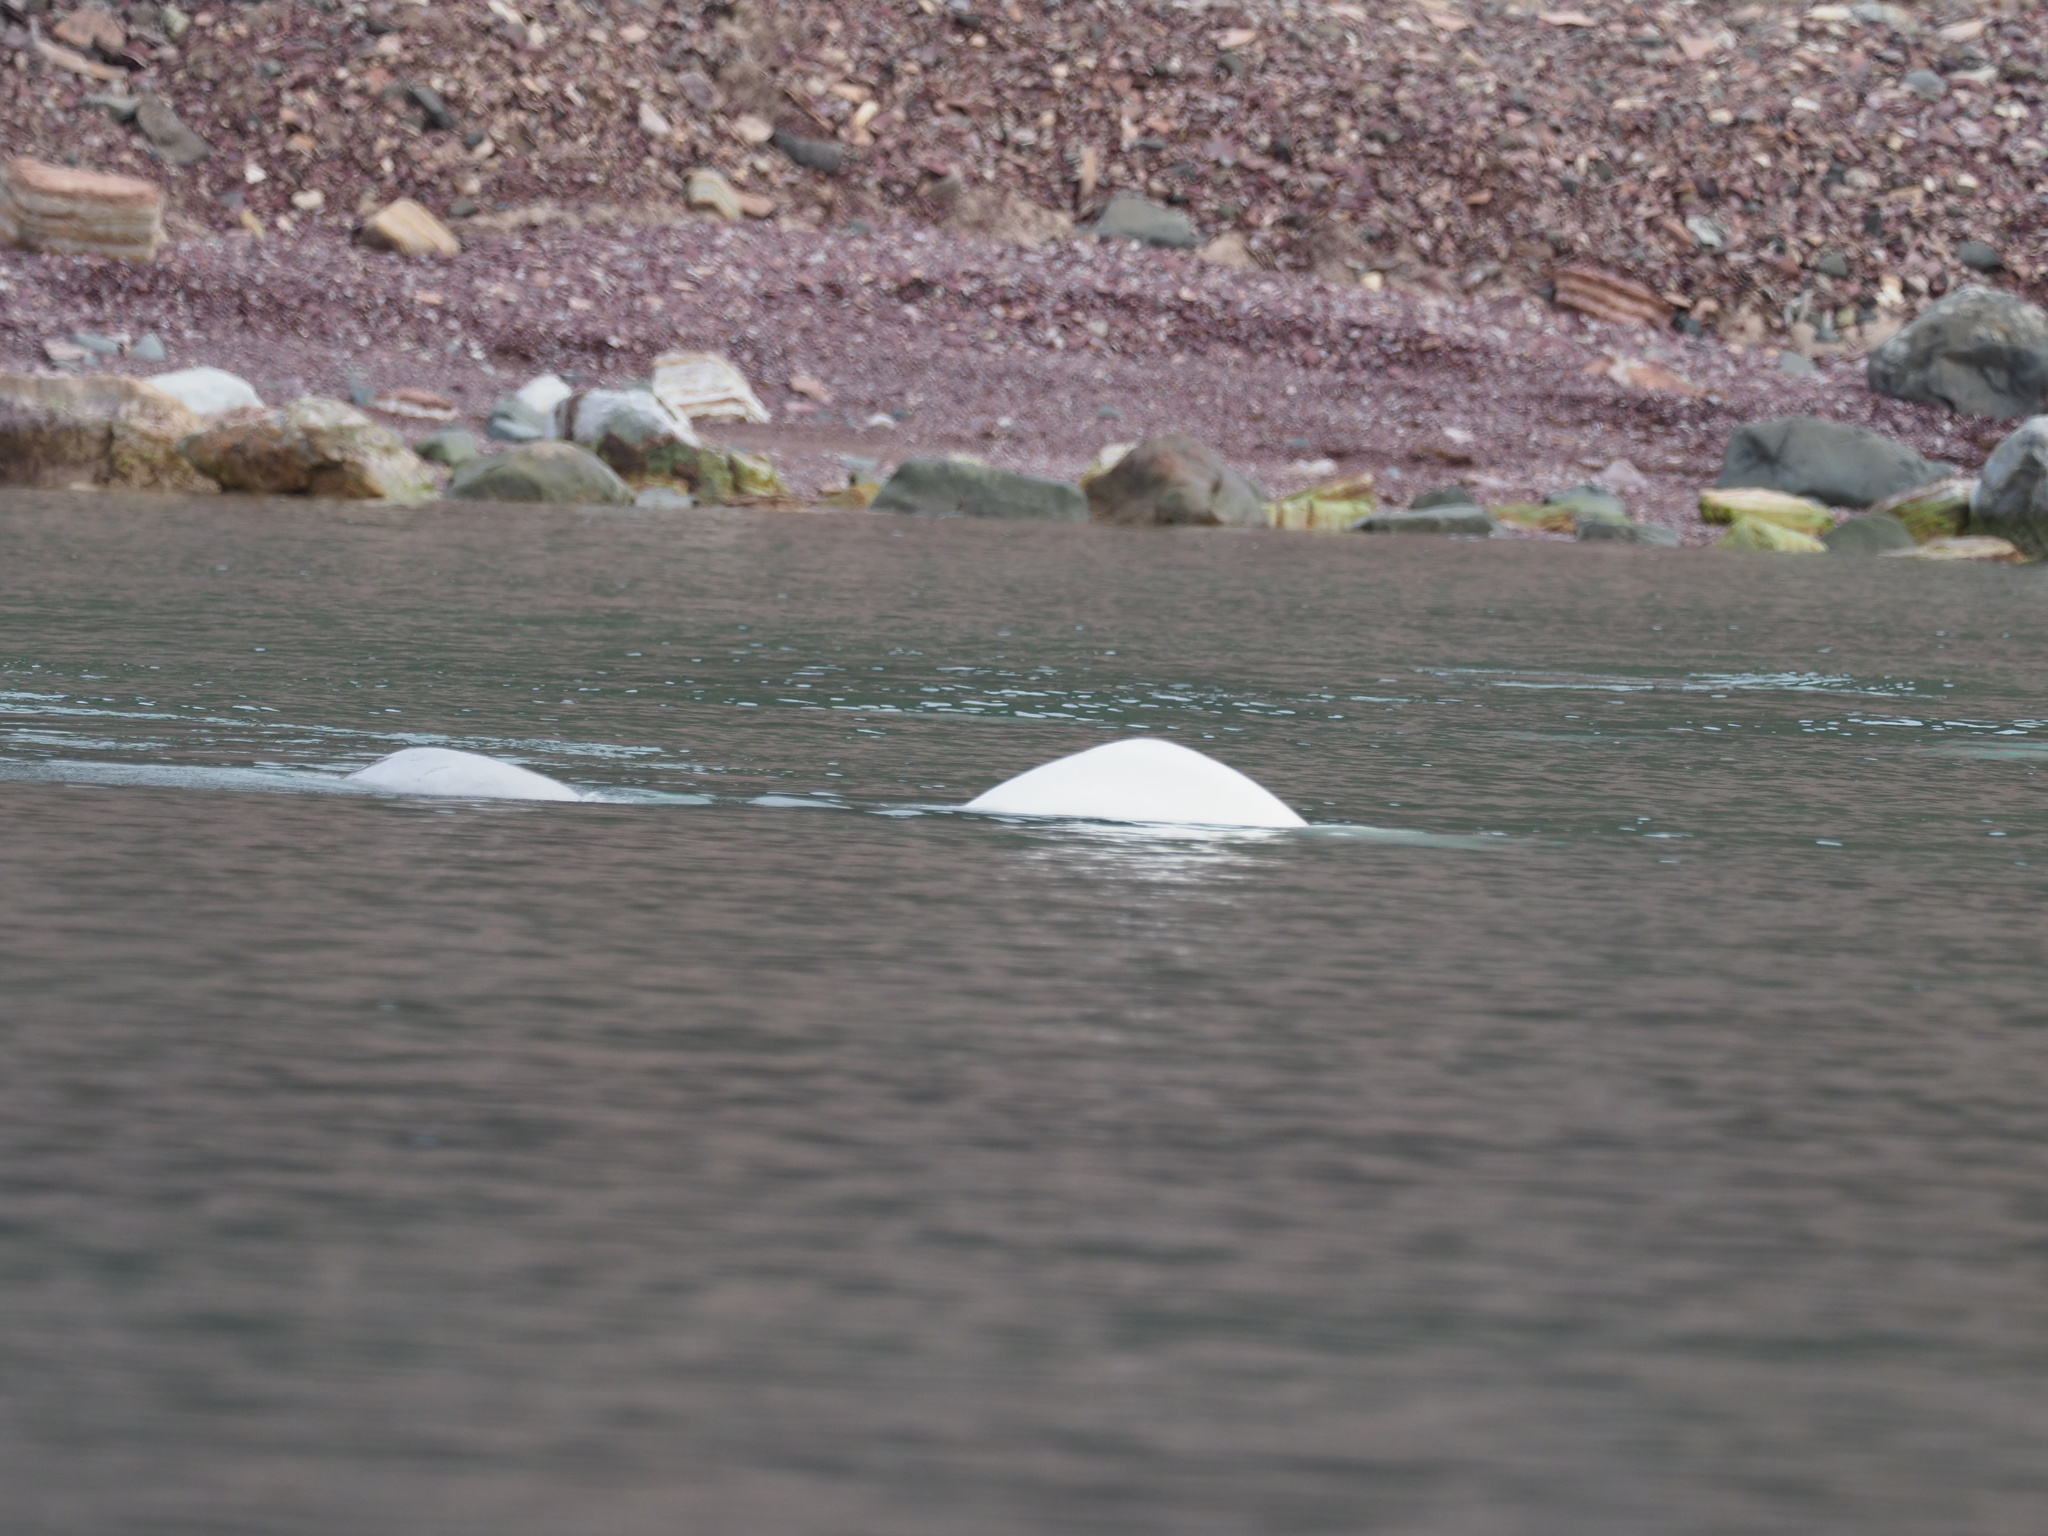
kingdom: Animalia
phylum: Chordata
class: Mammalia
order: Cetacea
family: Monodontidae
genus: Delphinapterus
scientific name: Delphinapterus leucas
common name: Beluga
